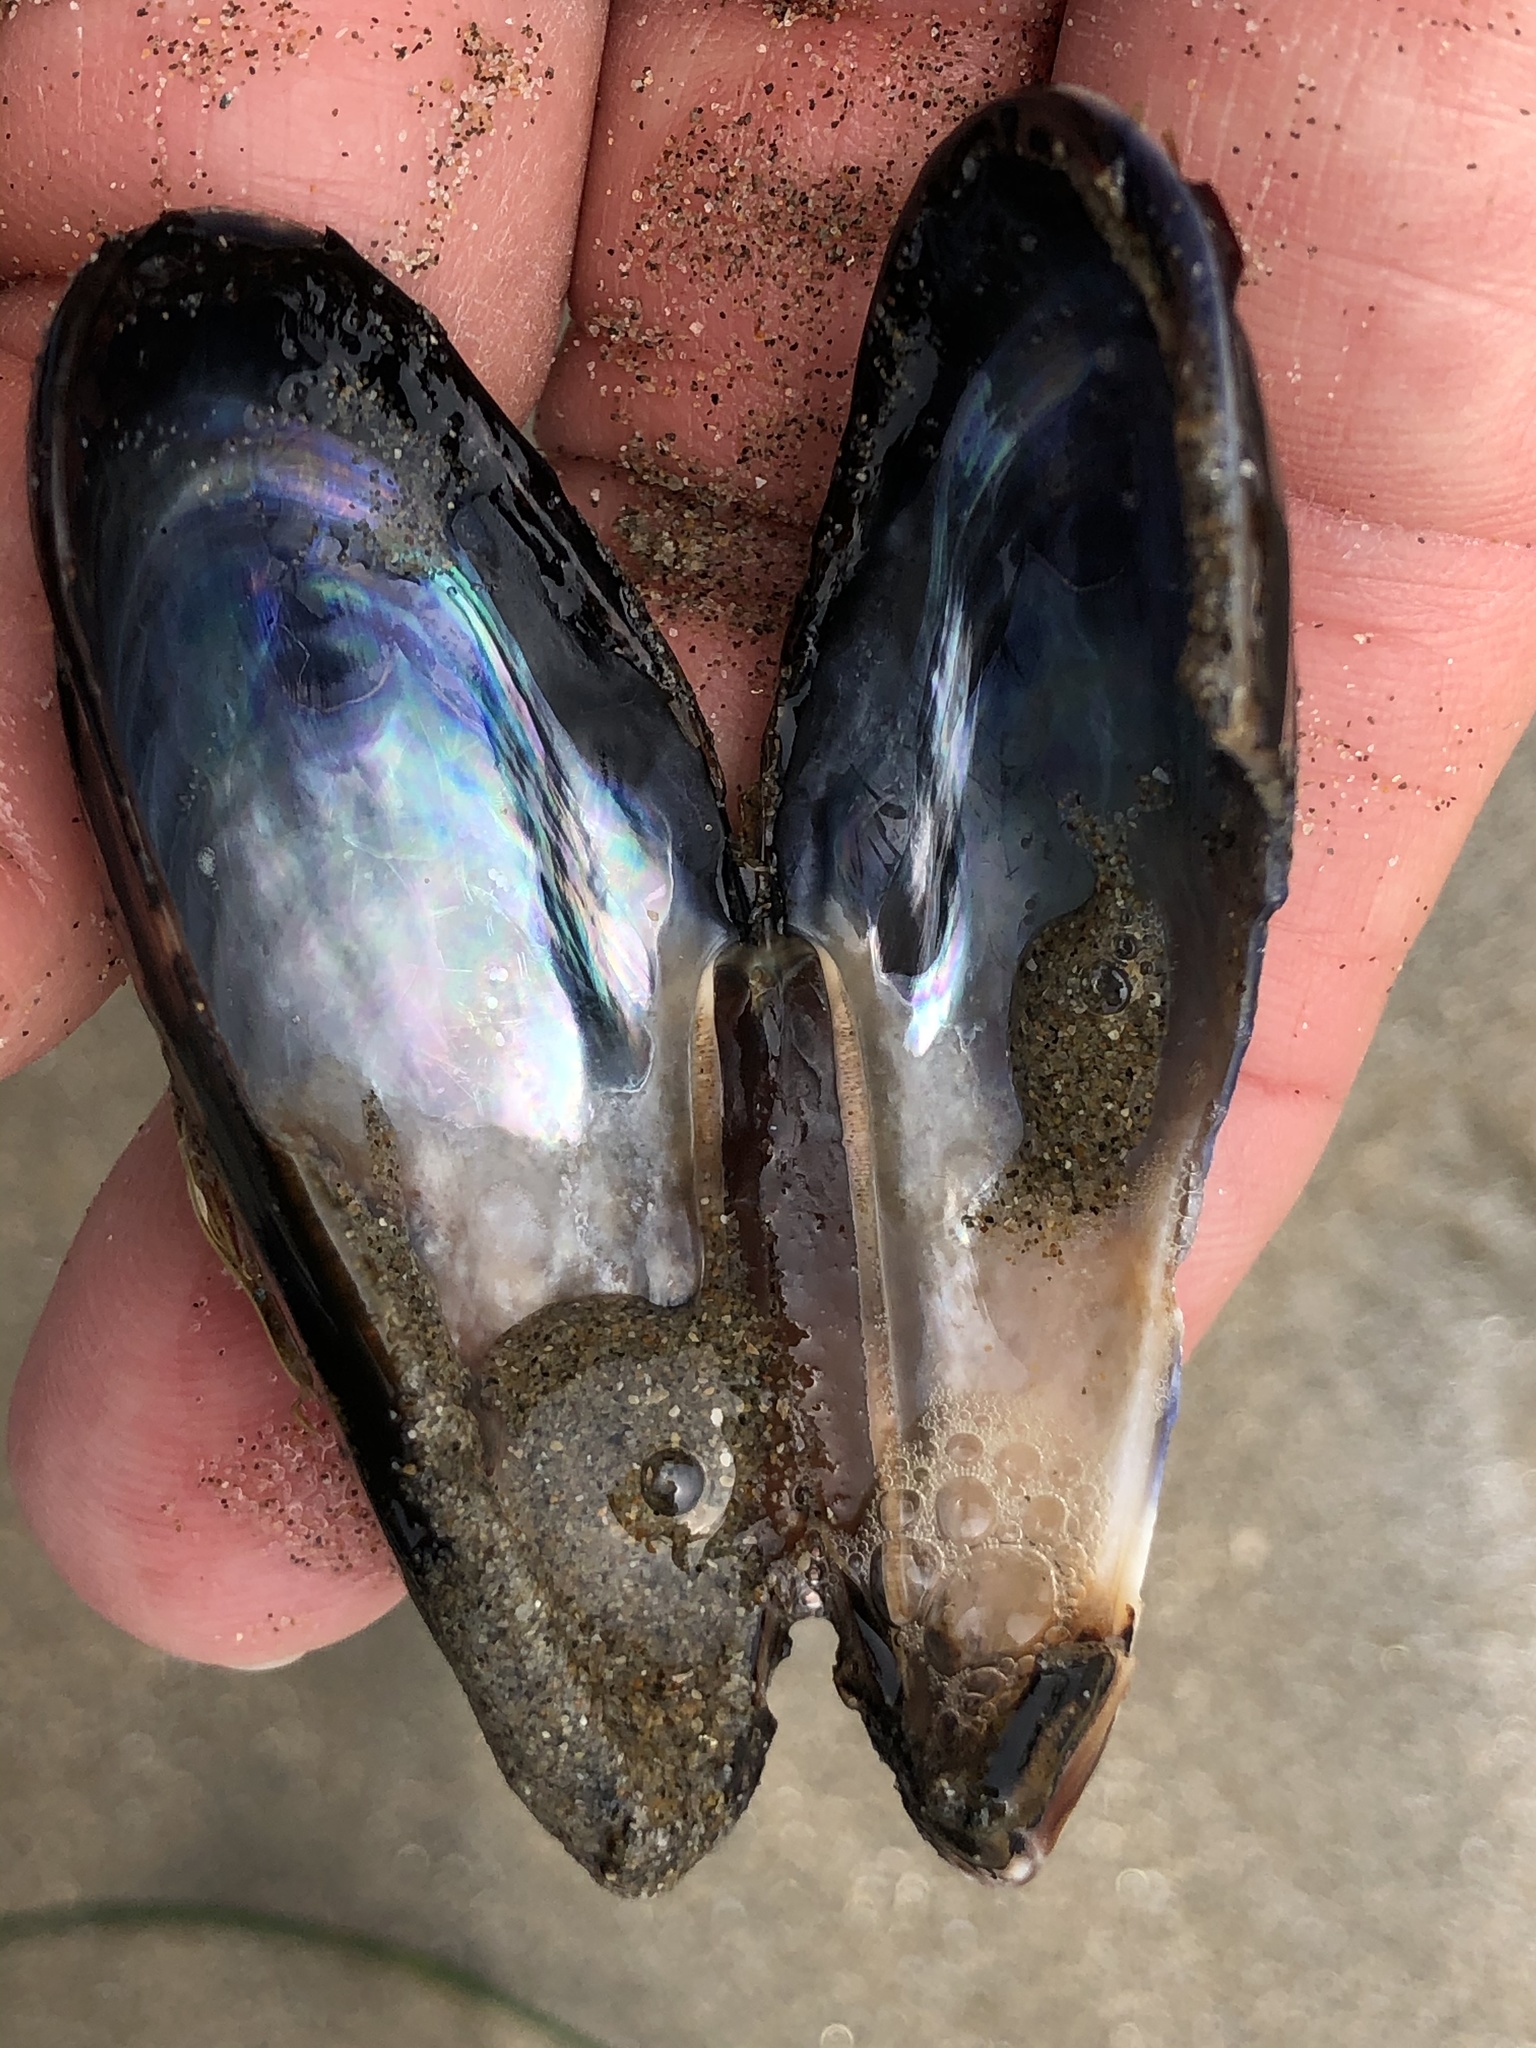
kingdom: Animalia
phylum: Mollusca
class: Bivalvia
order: Mytilida
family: Mytilidae
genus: Mytilus
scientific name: Mytilus californianus
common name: California mussel
